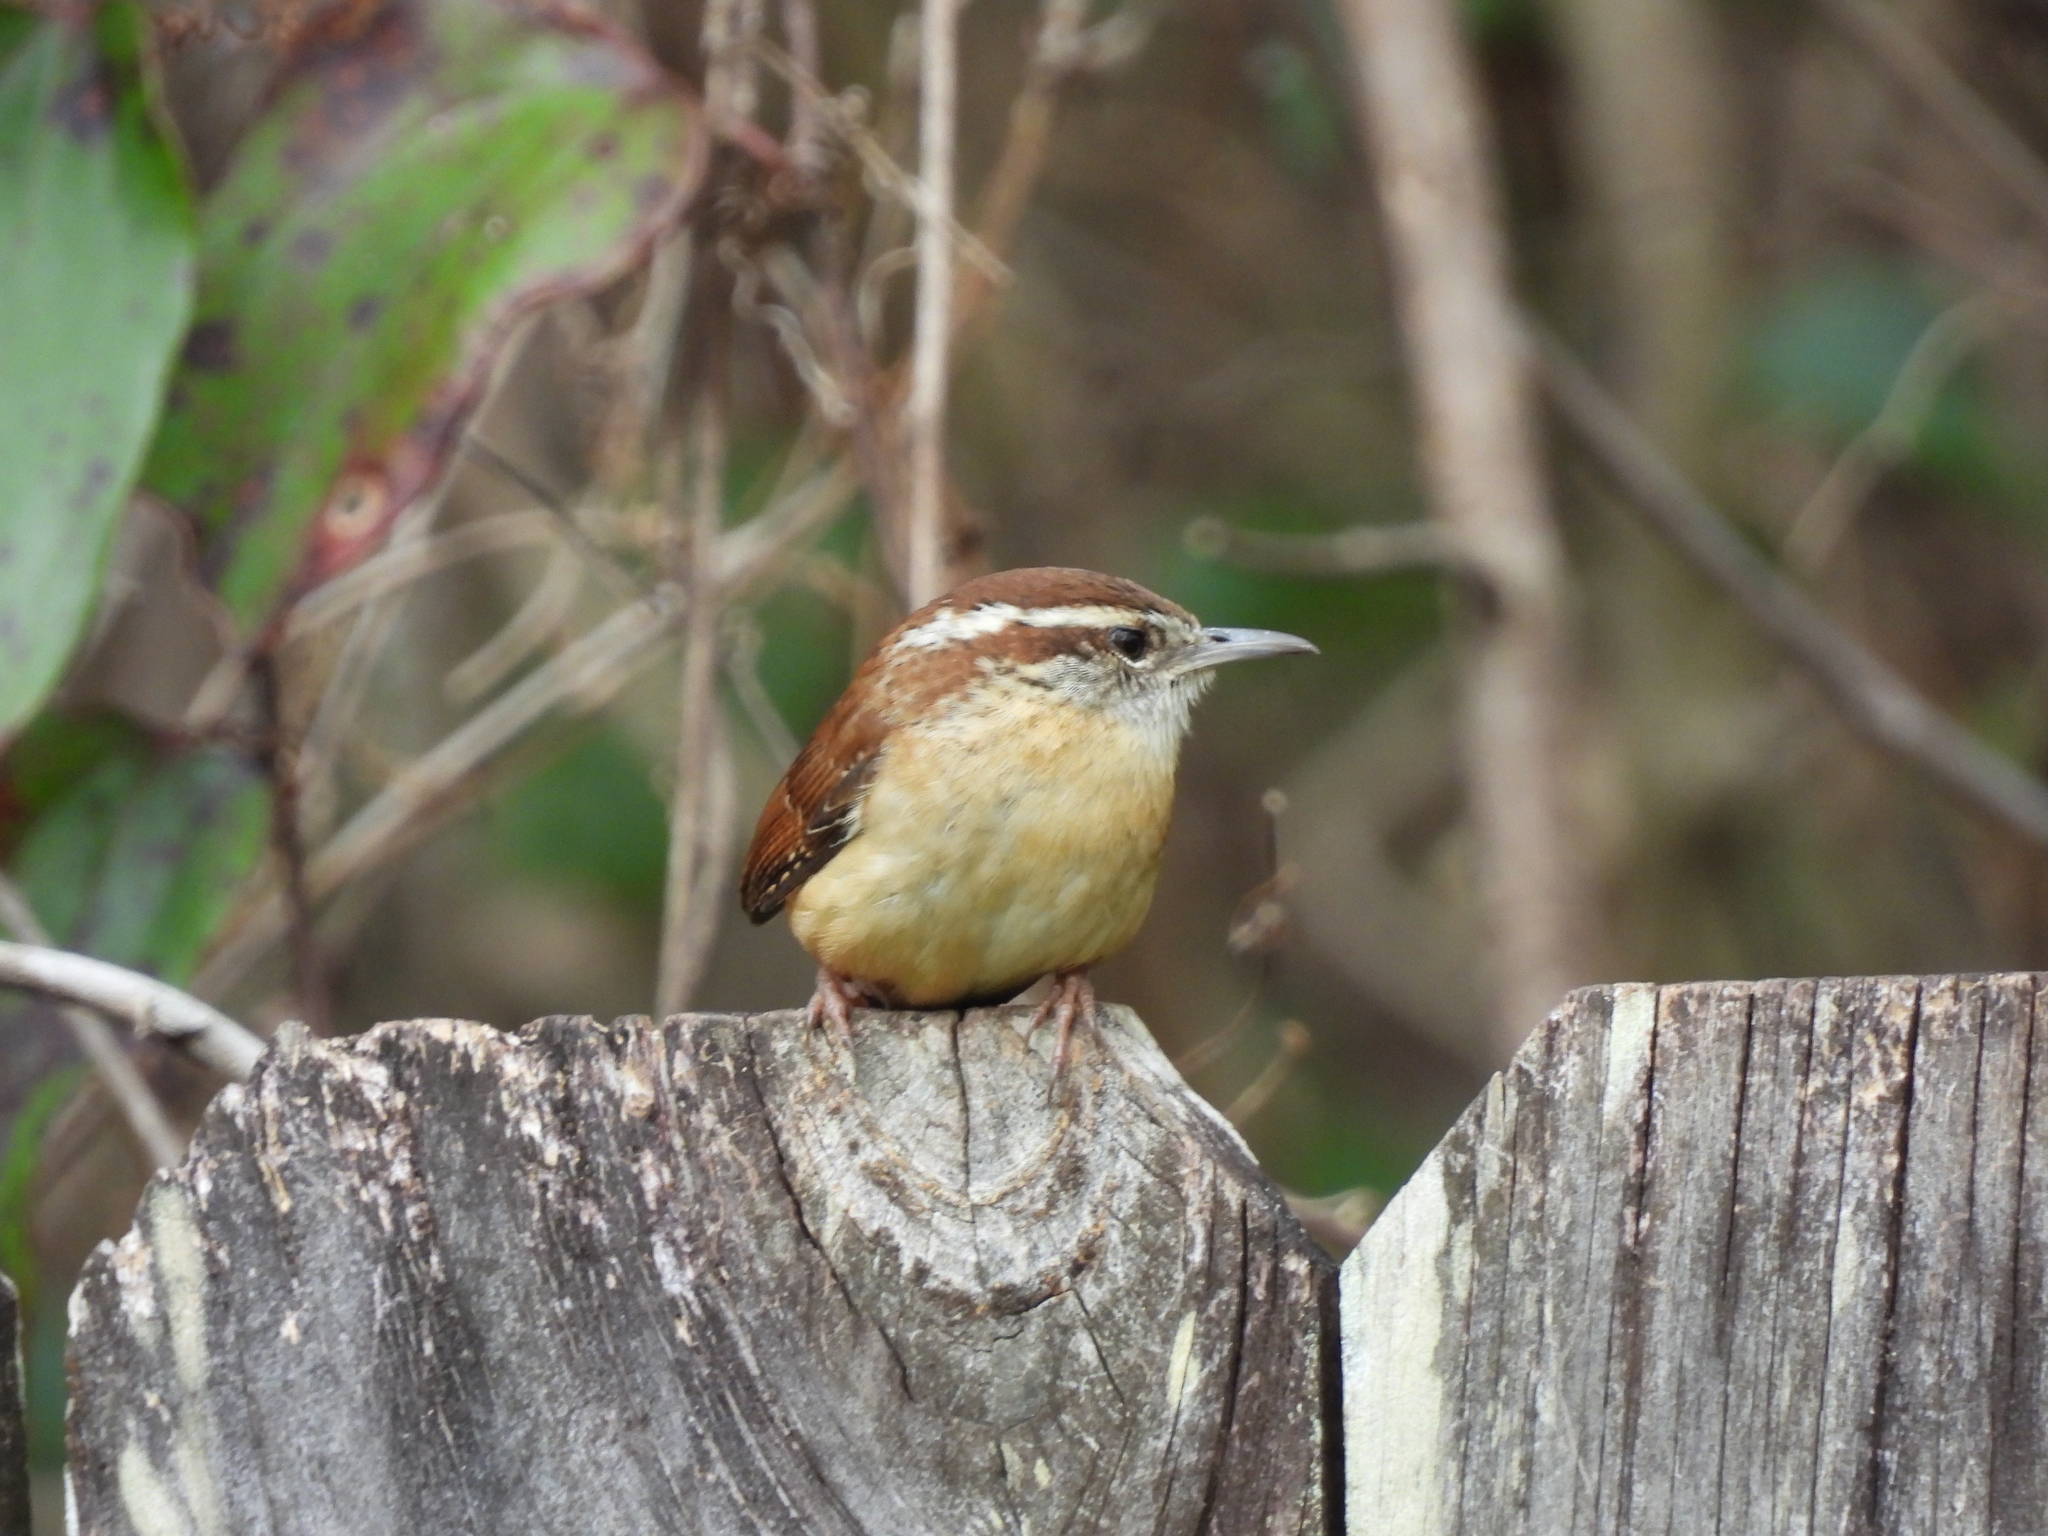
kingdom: Animalia
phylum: Chordata
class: Aves
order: Passeriformes
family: Troglodytidae
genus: Thryothorus
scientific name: Thryothorus ludovicianus
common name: Carolina wren
